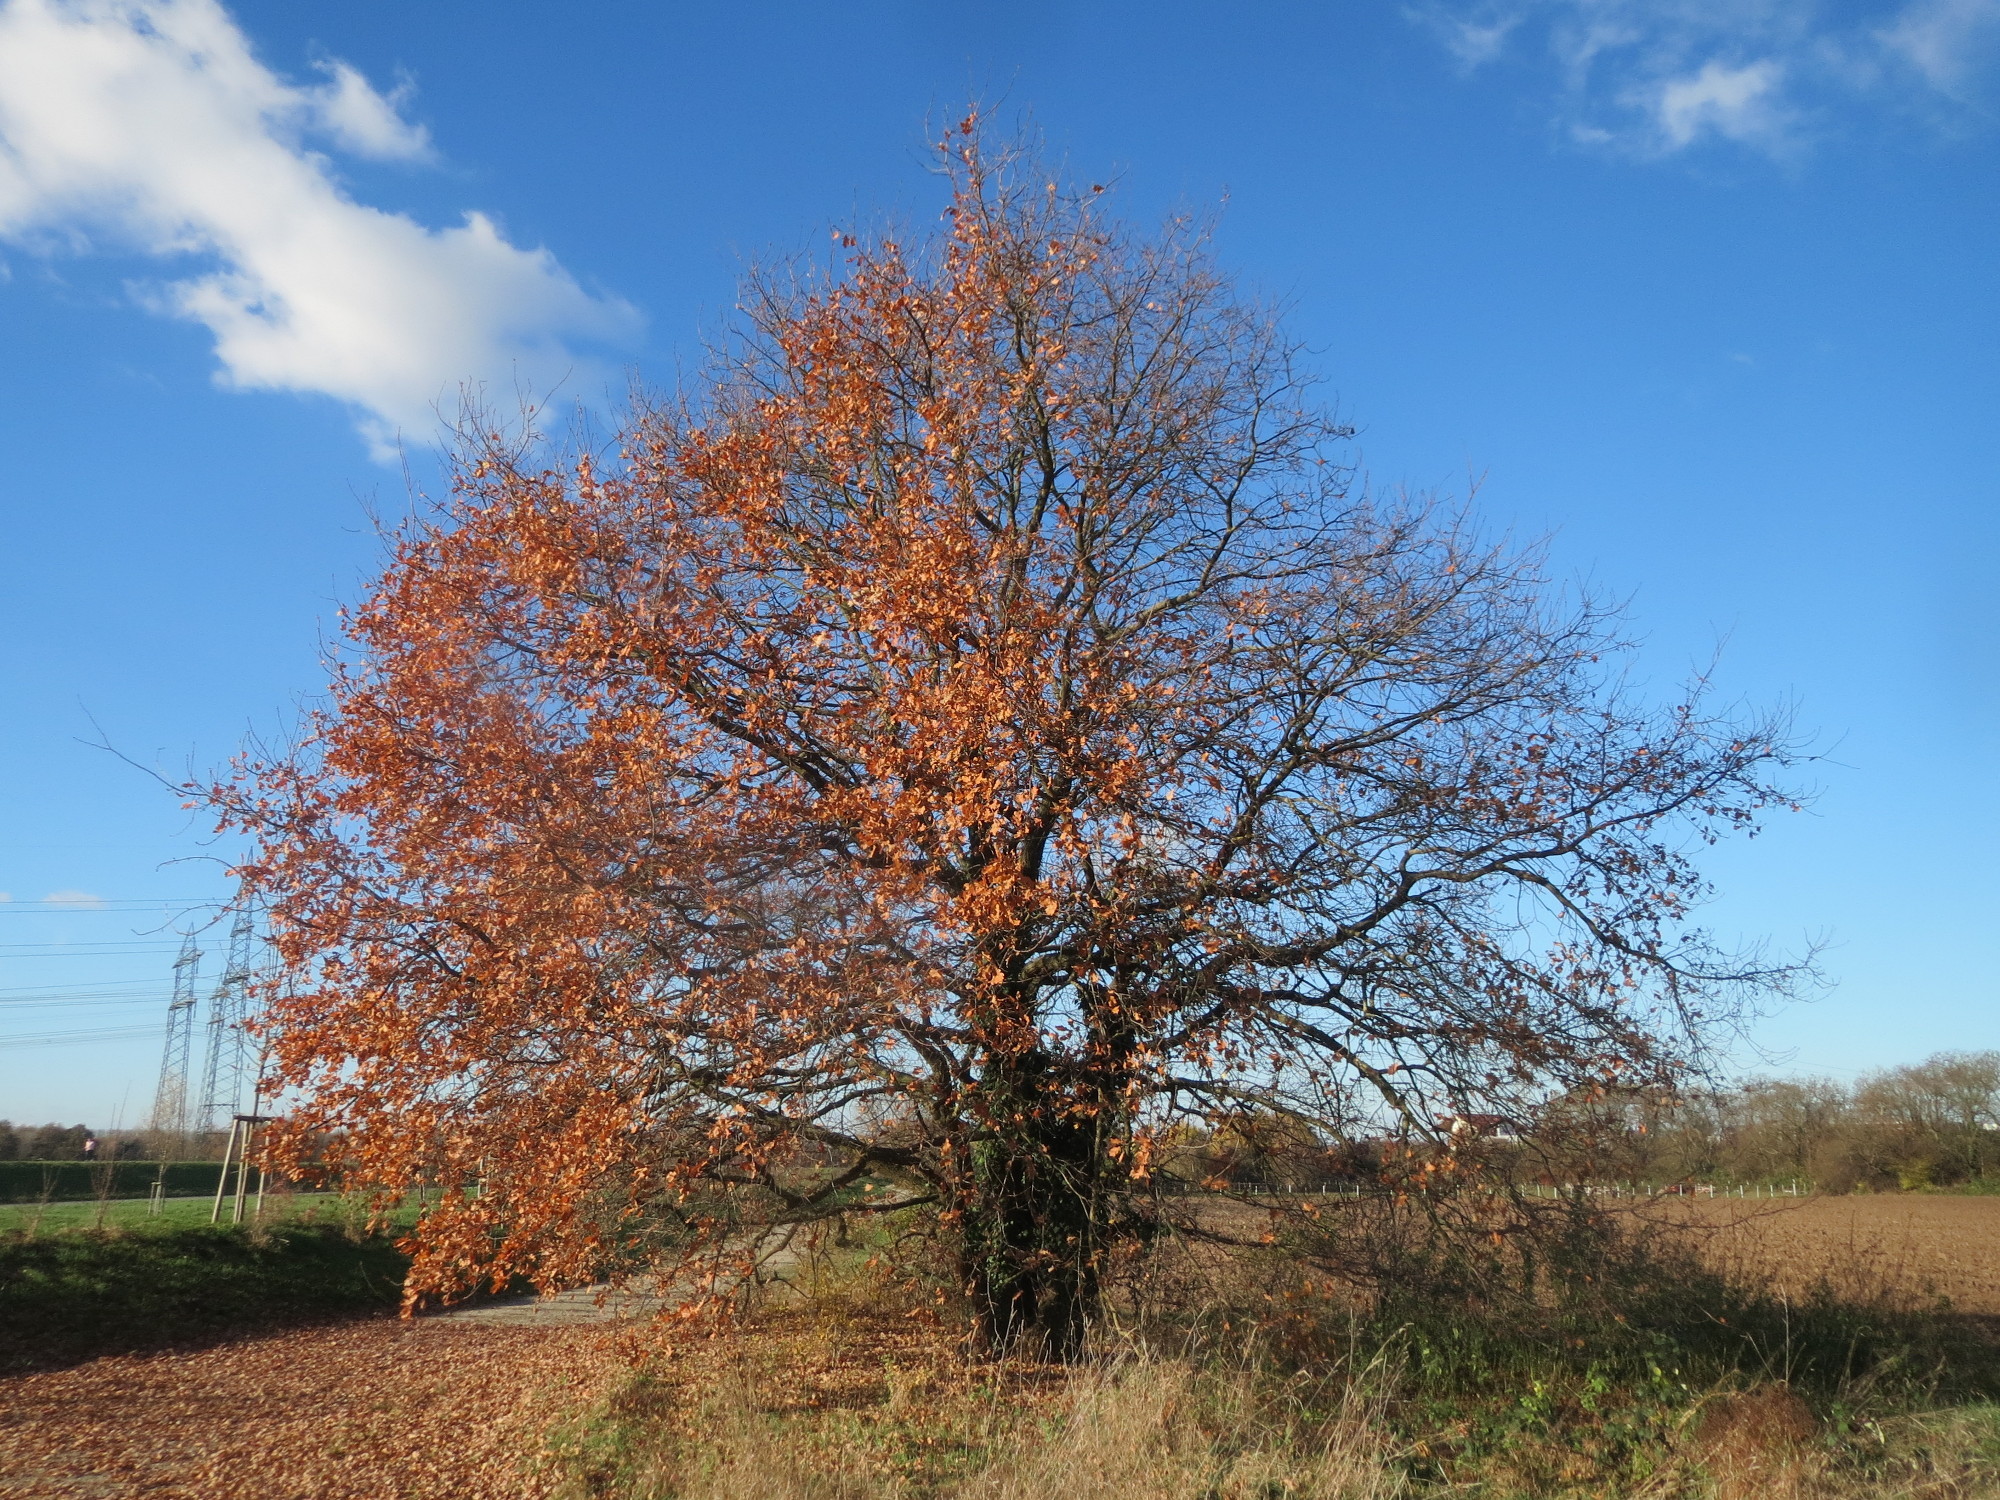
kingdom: Plantae
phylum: Tracheophyta
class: Magnoliopsida
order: Fagales
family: Fagaceae
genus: Quercus
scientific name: Quercus robur
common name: Pedunculate oak
